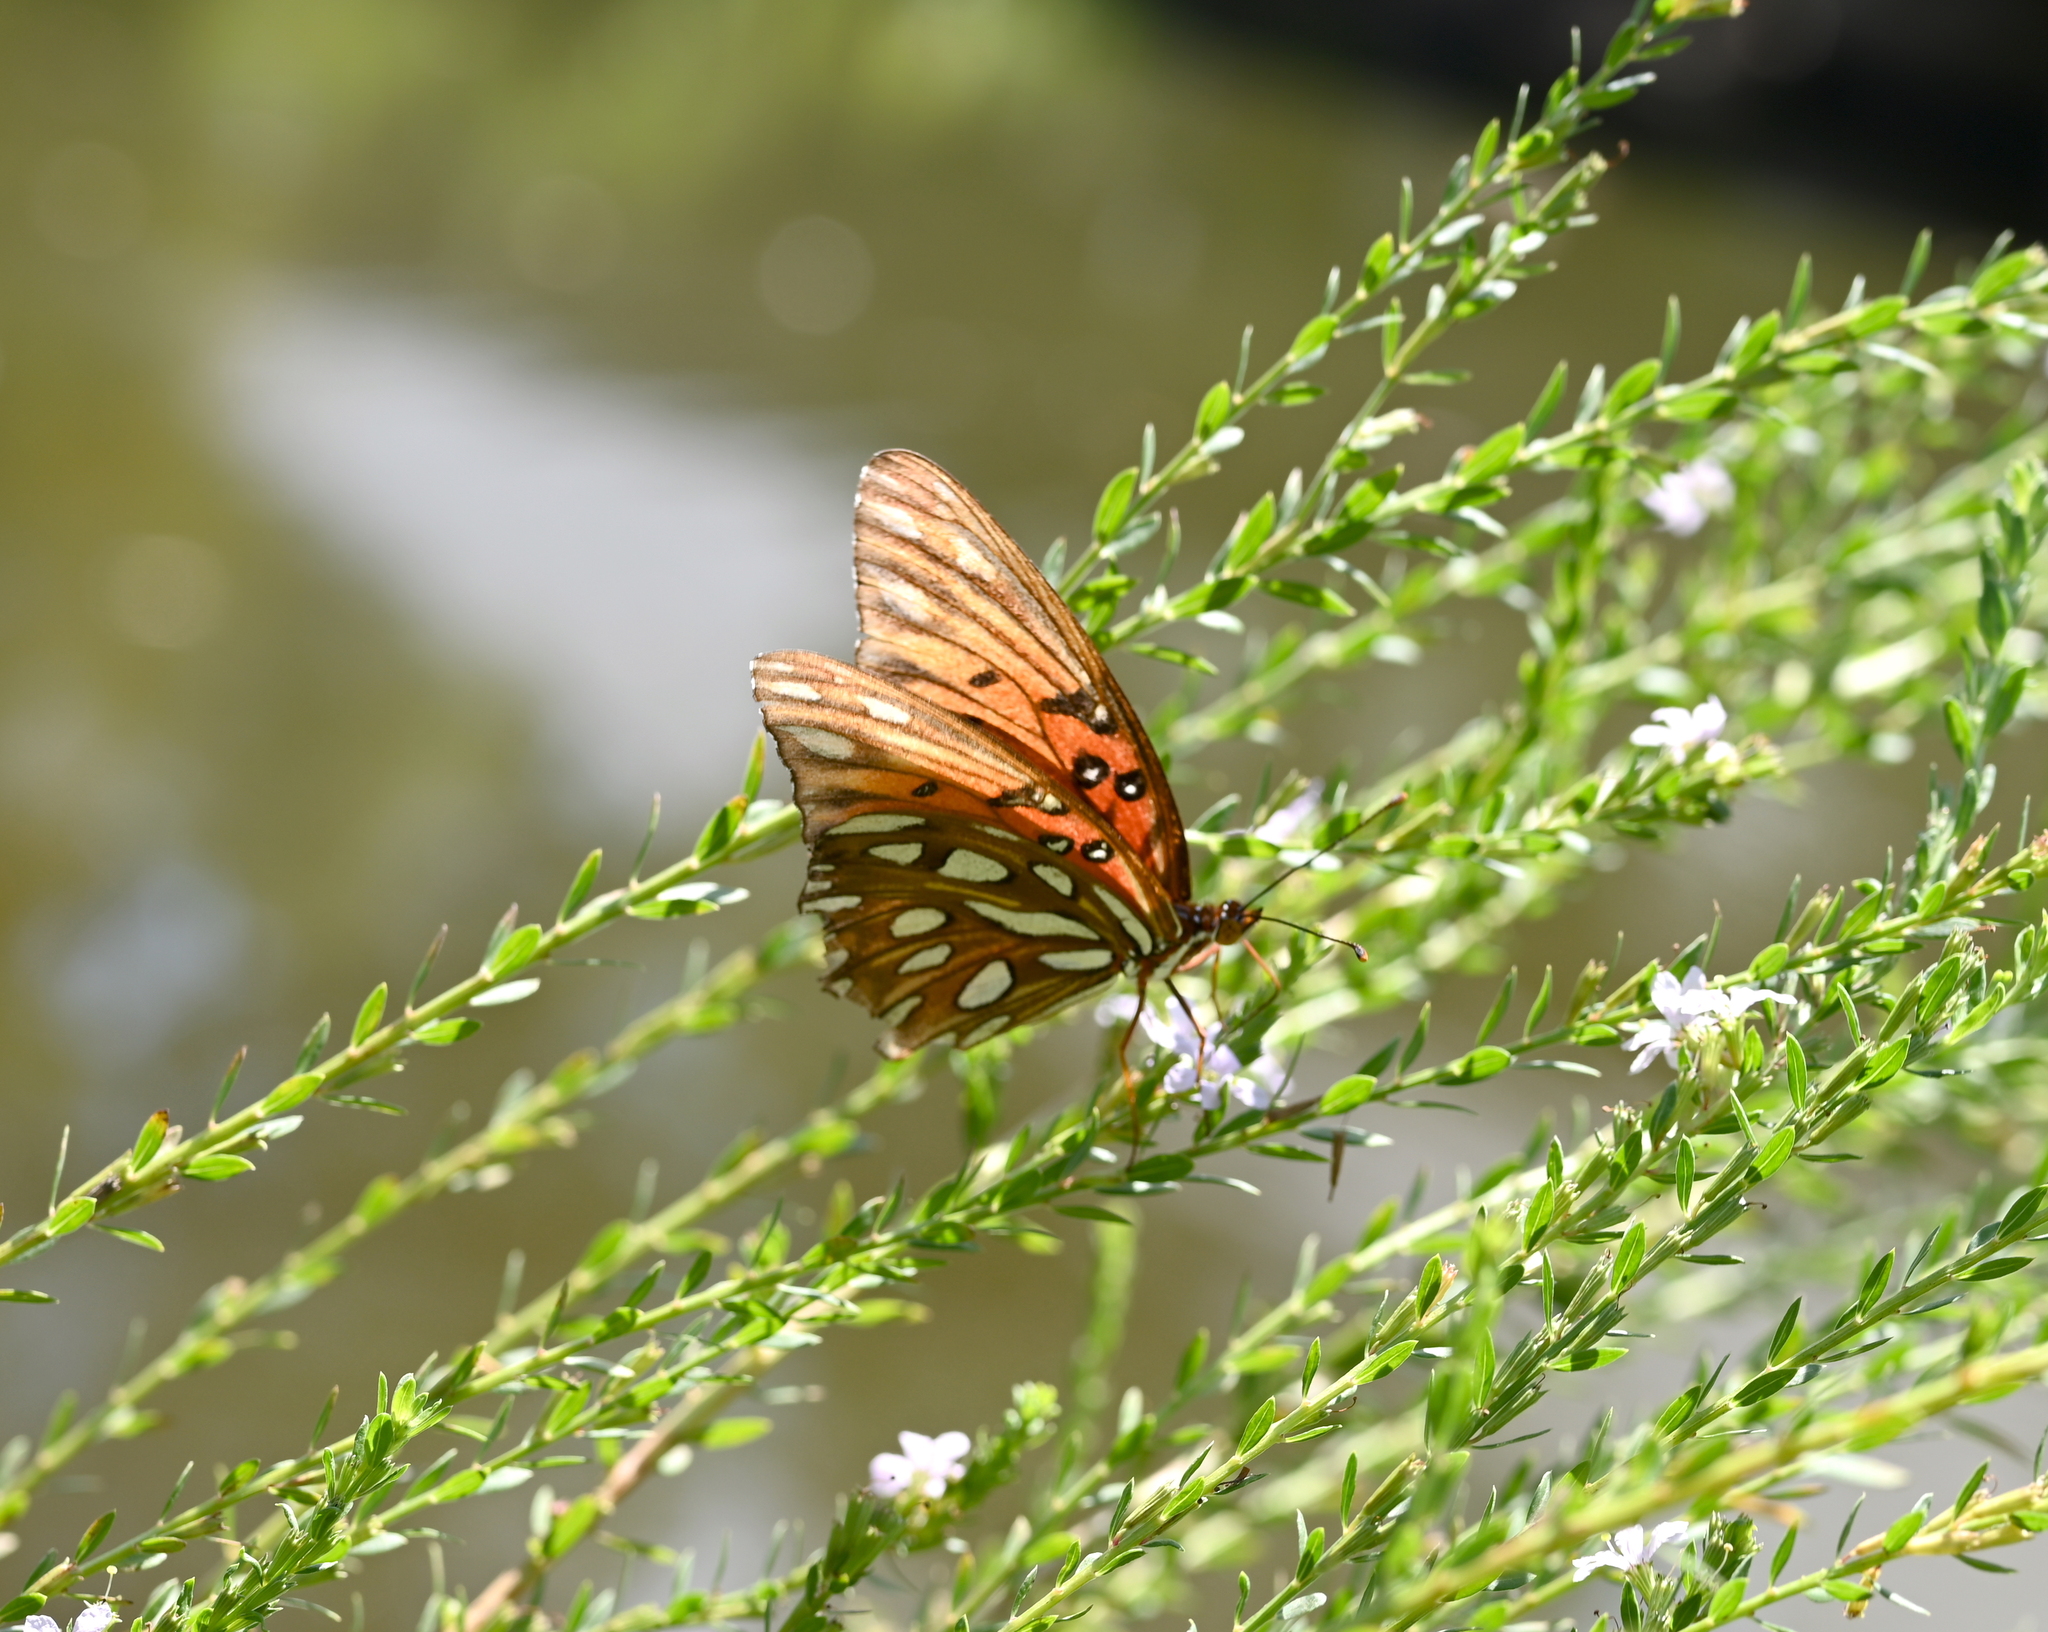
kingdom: Animalia
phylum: Arthropoda
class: Insecta
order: Lepidoptera
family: Nymphalidae
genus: Dione
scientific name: Dione vanillae
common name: Gulf fritillary
